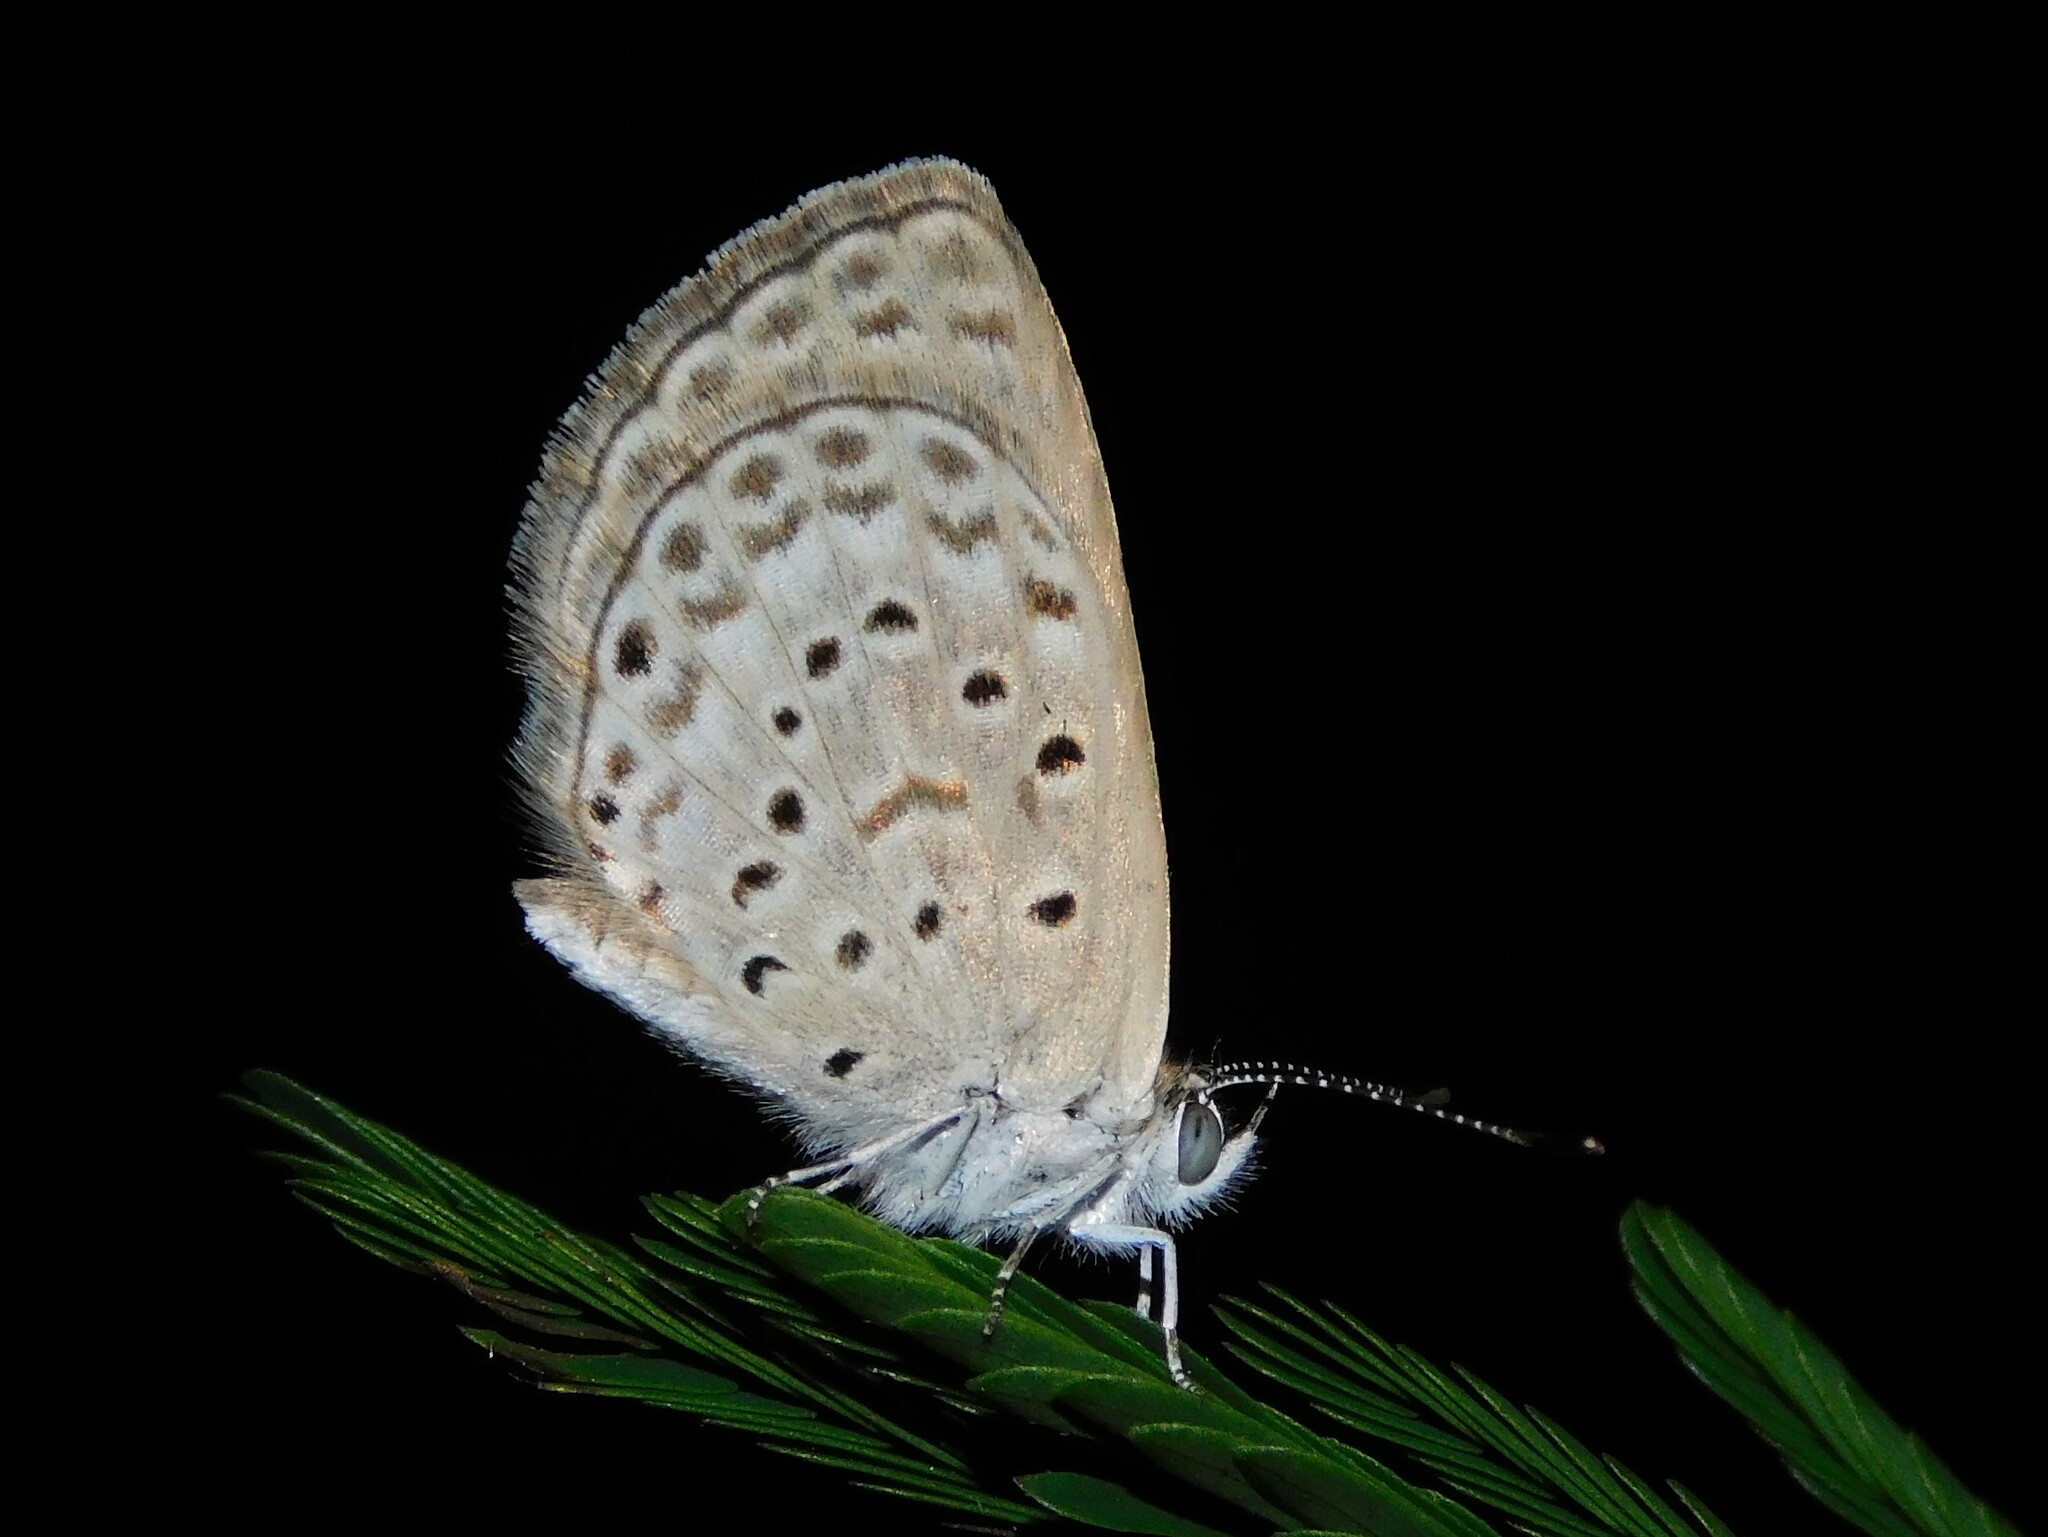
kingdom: Animalia
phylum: Arthropoda
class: Insecta
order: Lepidoptera
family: Lycaenidae
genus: Zizeeria
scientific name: Zizeeria knysna
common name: African grass blue
